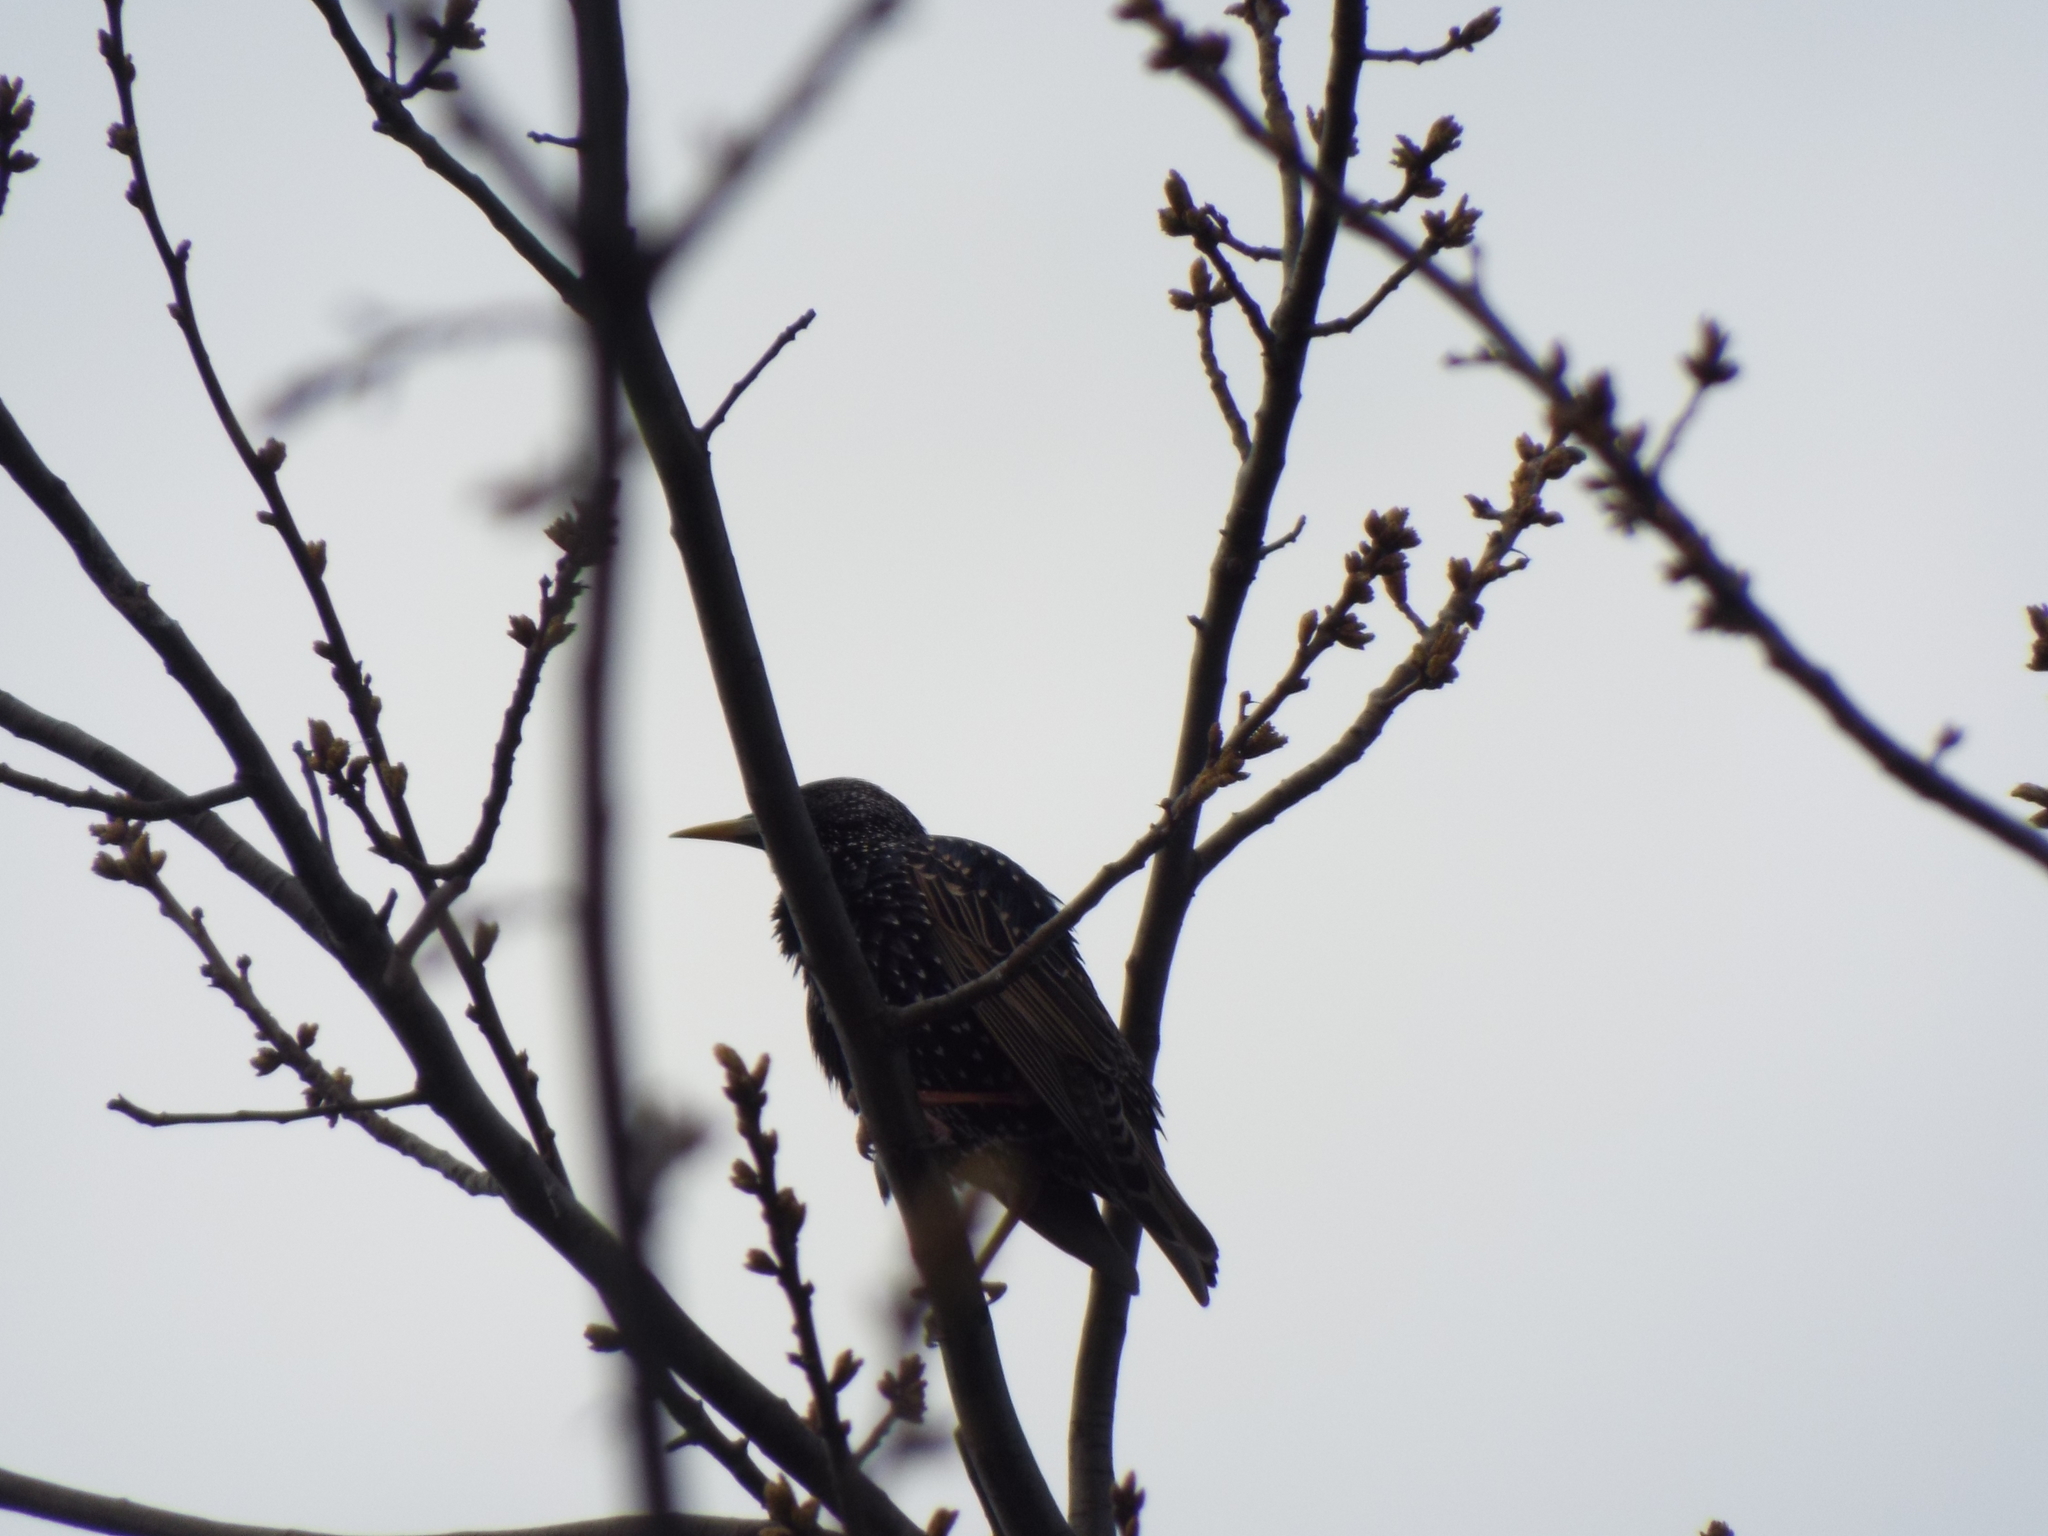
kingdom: Animalia
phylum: Chordata
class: Aves
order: Passeriformes
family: Sturnidae
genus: Sturnus
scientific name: Sturnus vulgaris
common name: Common starling
